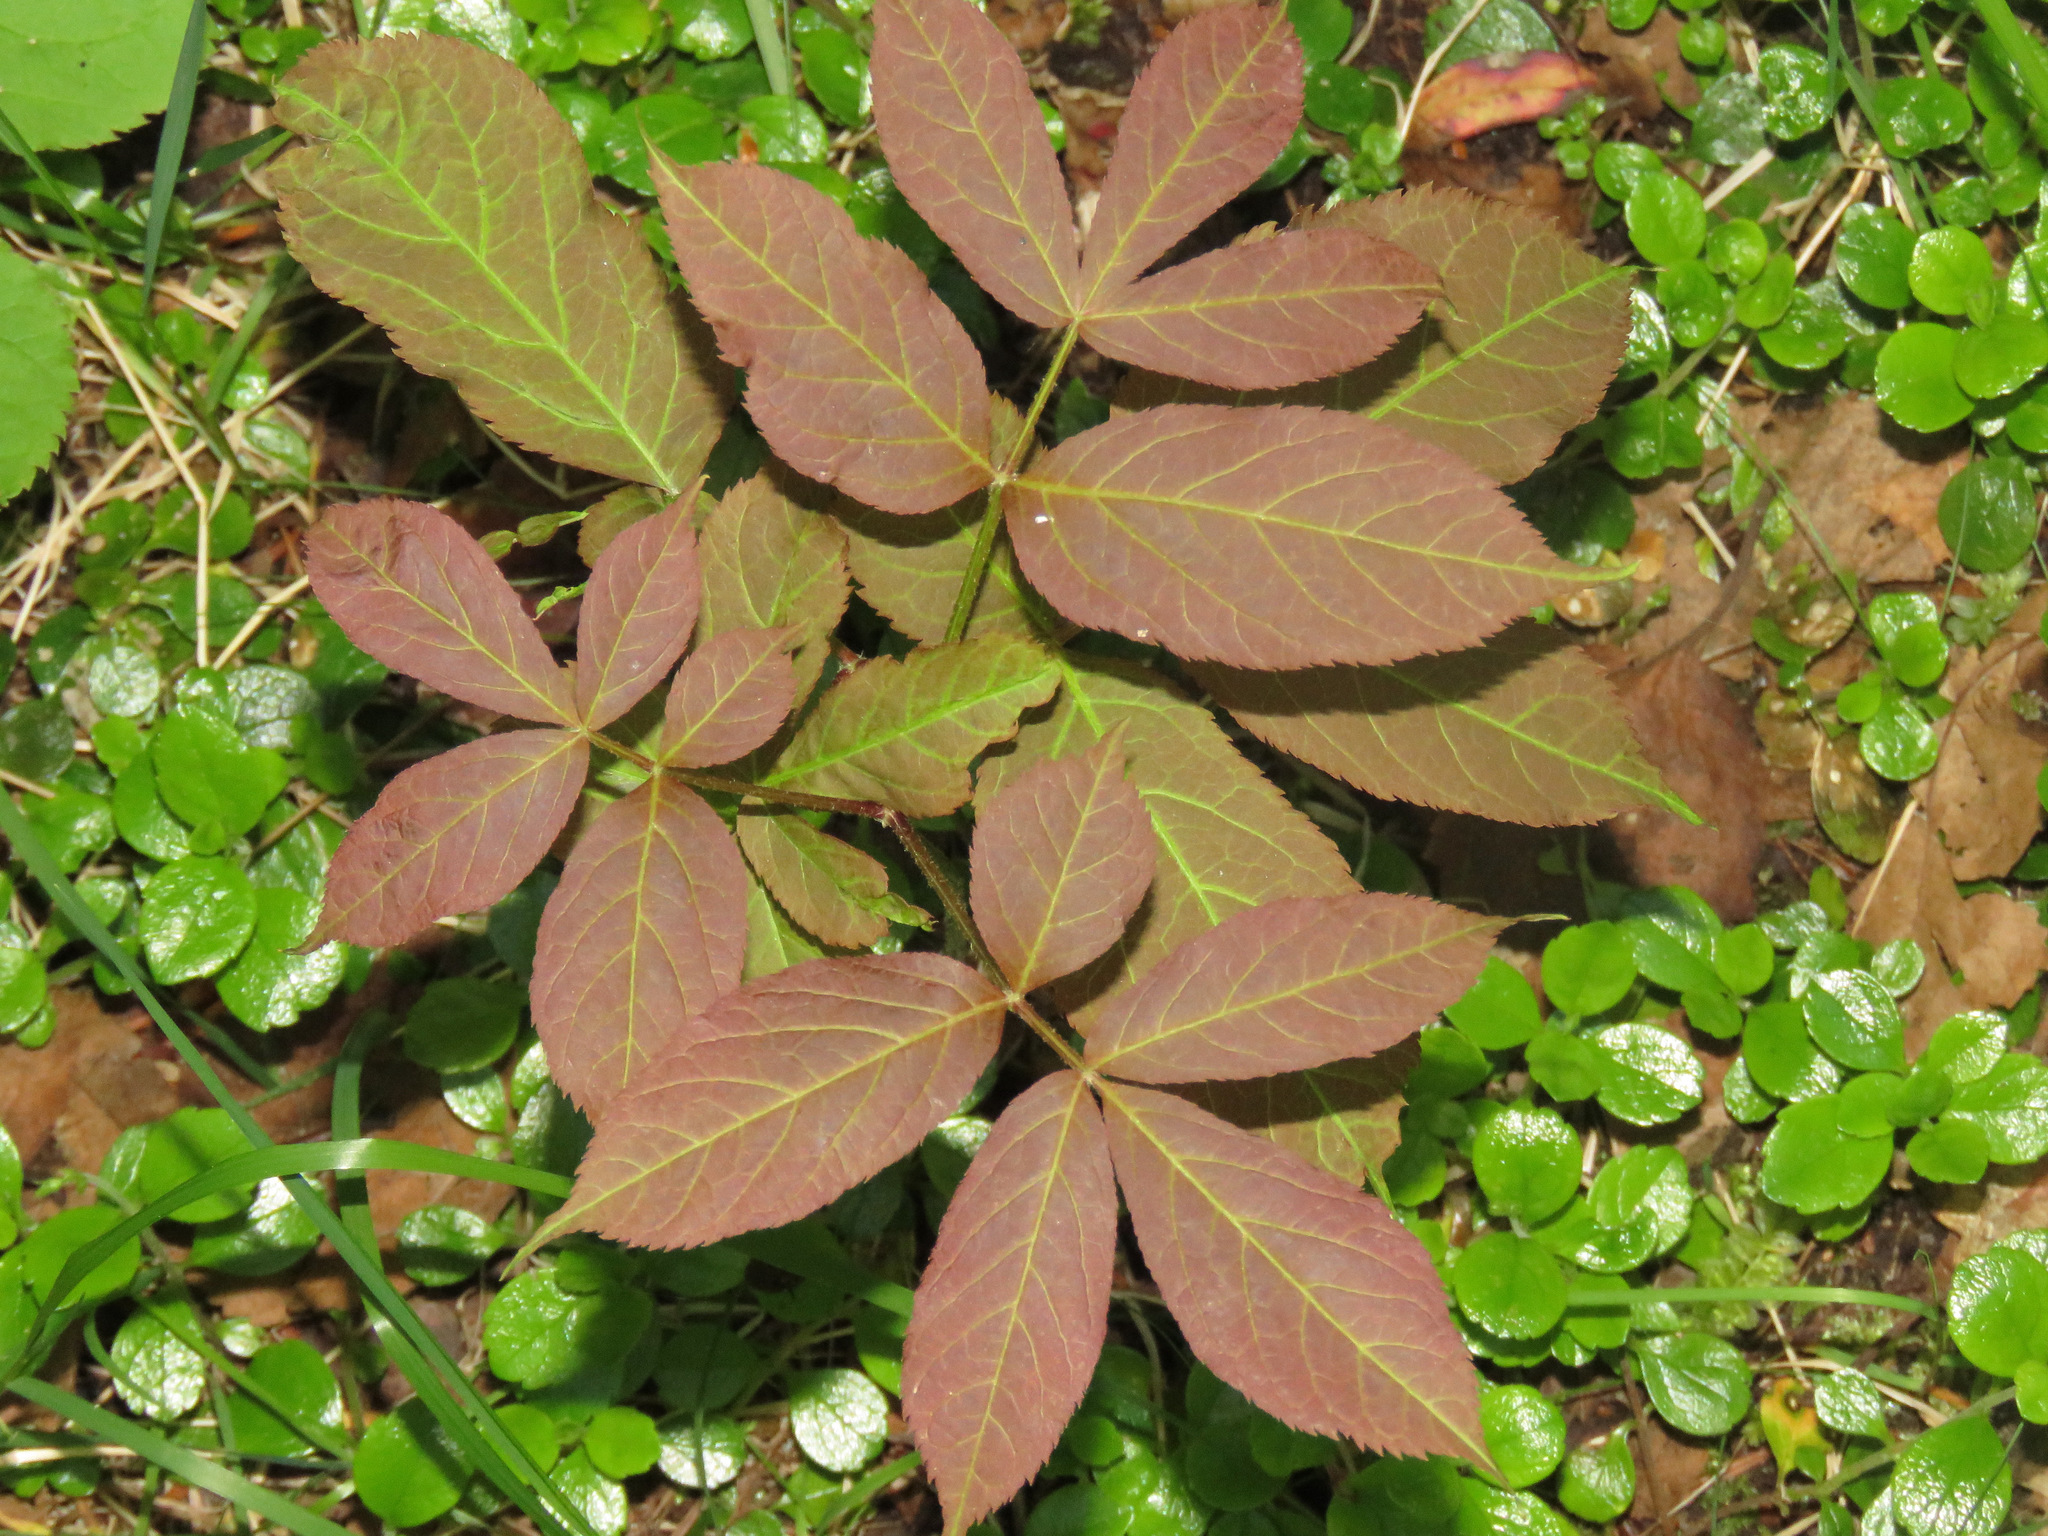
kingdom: Plantae
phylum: Tracheophyta
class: Magnoliopsida
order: Apiales
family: Araliaceae
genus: Aralia
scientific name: Aralia nudicaulis
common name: Wild sarsaparilla
